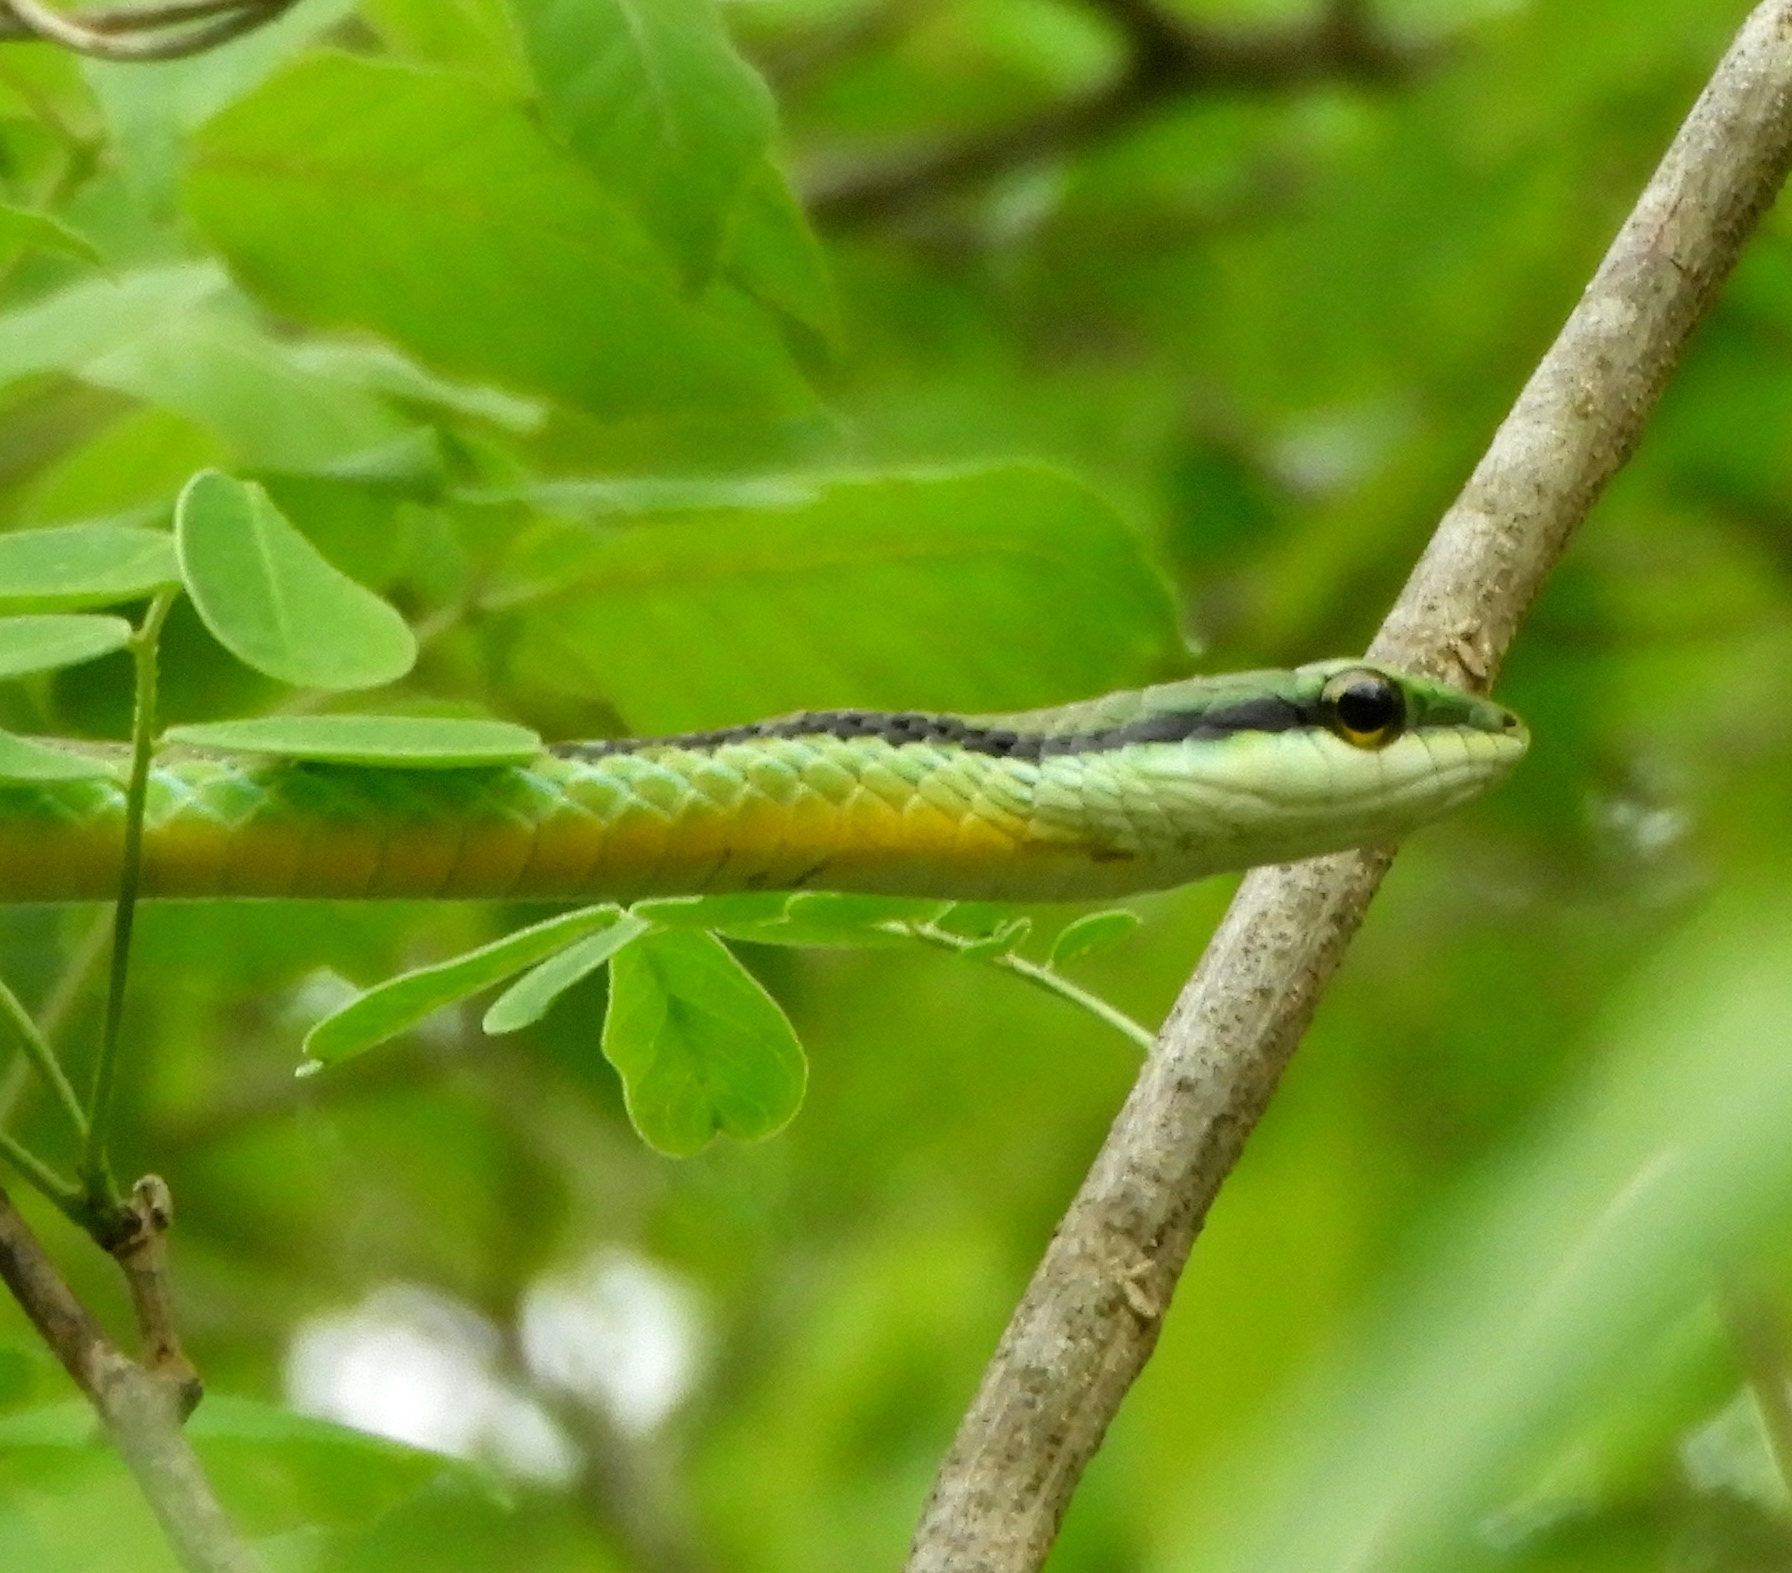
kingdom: Animalia
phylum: Chordata
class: Squamata
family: Colubridae
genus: Leptophis
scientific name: Leptophis diplotropis
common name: Pacific coast parrot snake
